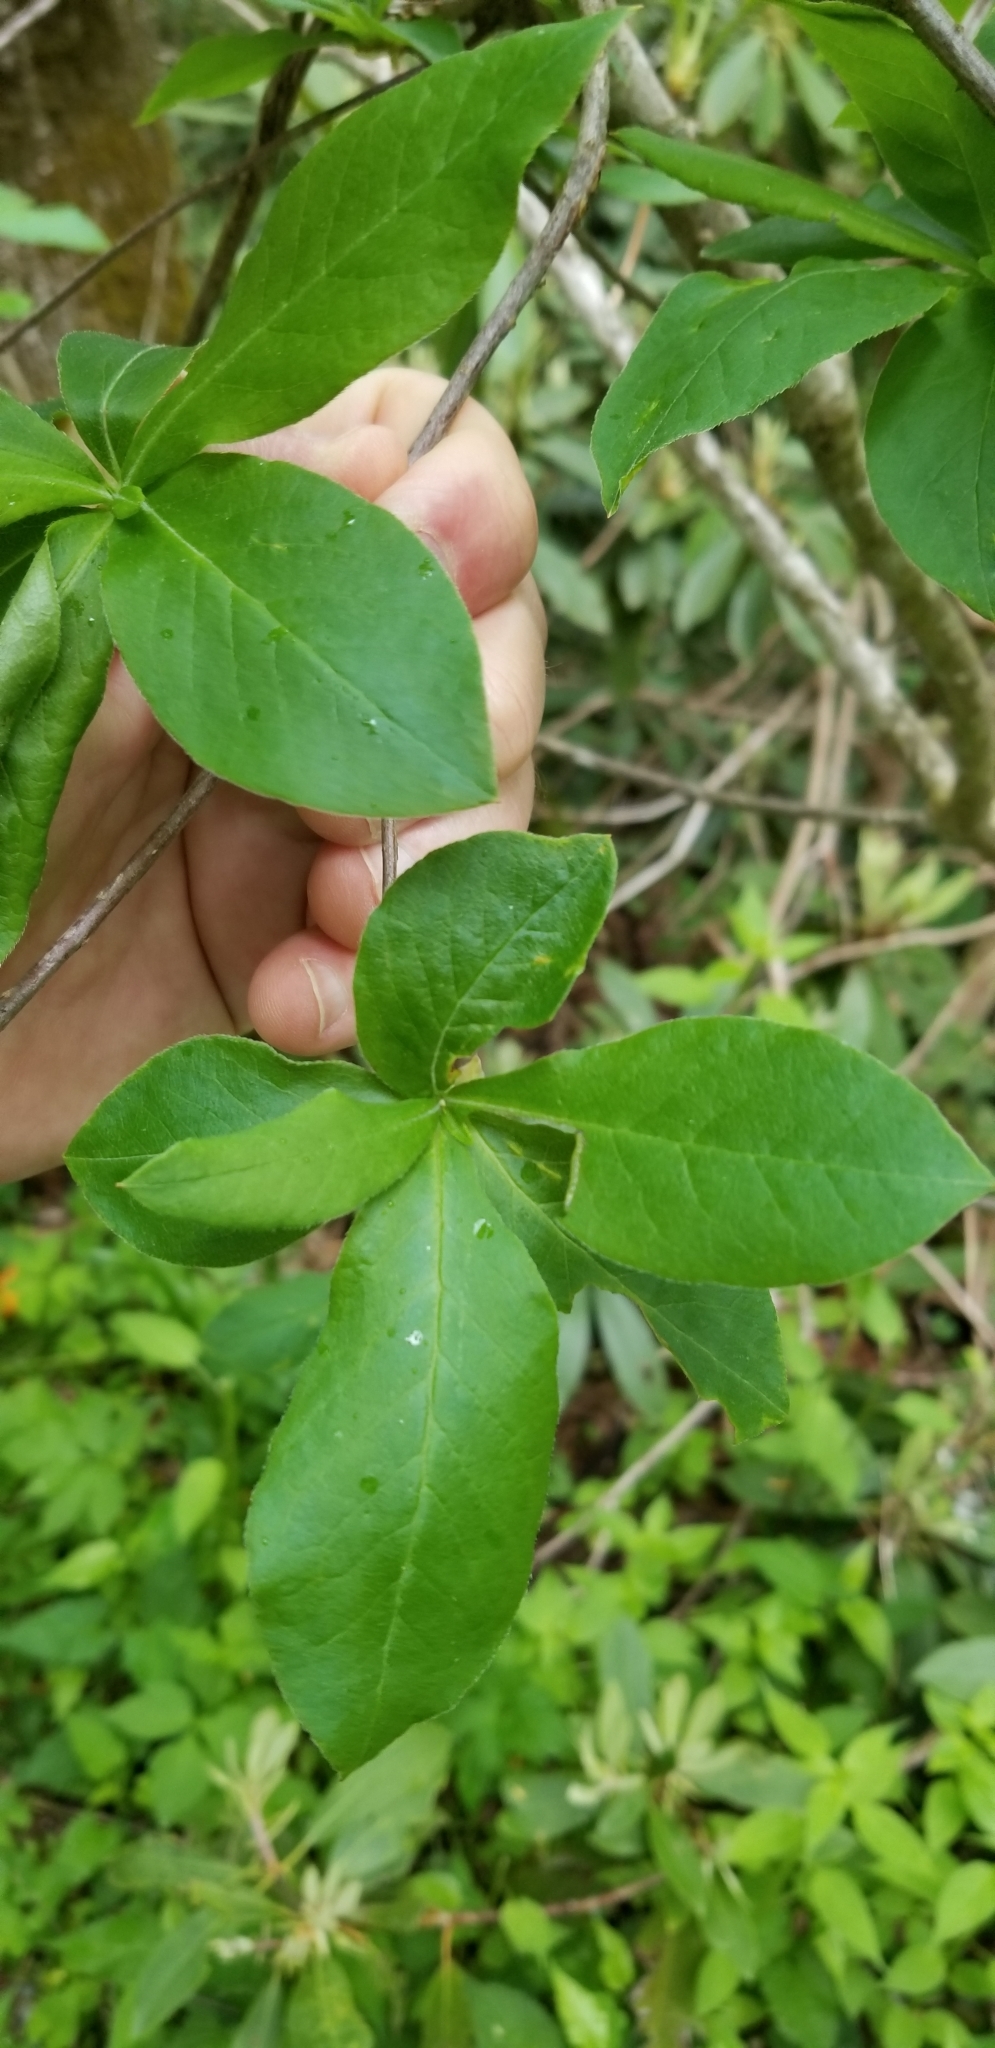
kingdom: Plantae
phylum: Tracheophyta
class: Magnoliopsida
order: Ericales
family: Ericaceae
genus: Rhododendron
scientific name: Rhododendron calendulaceum
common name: Flame azalea
